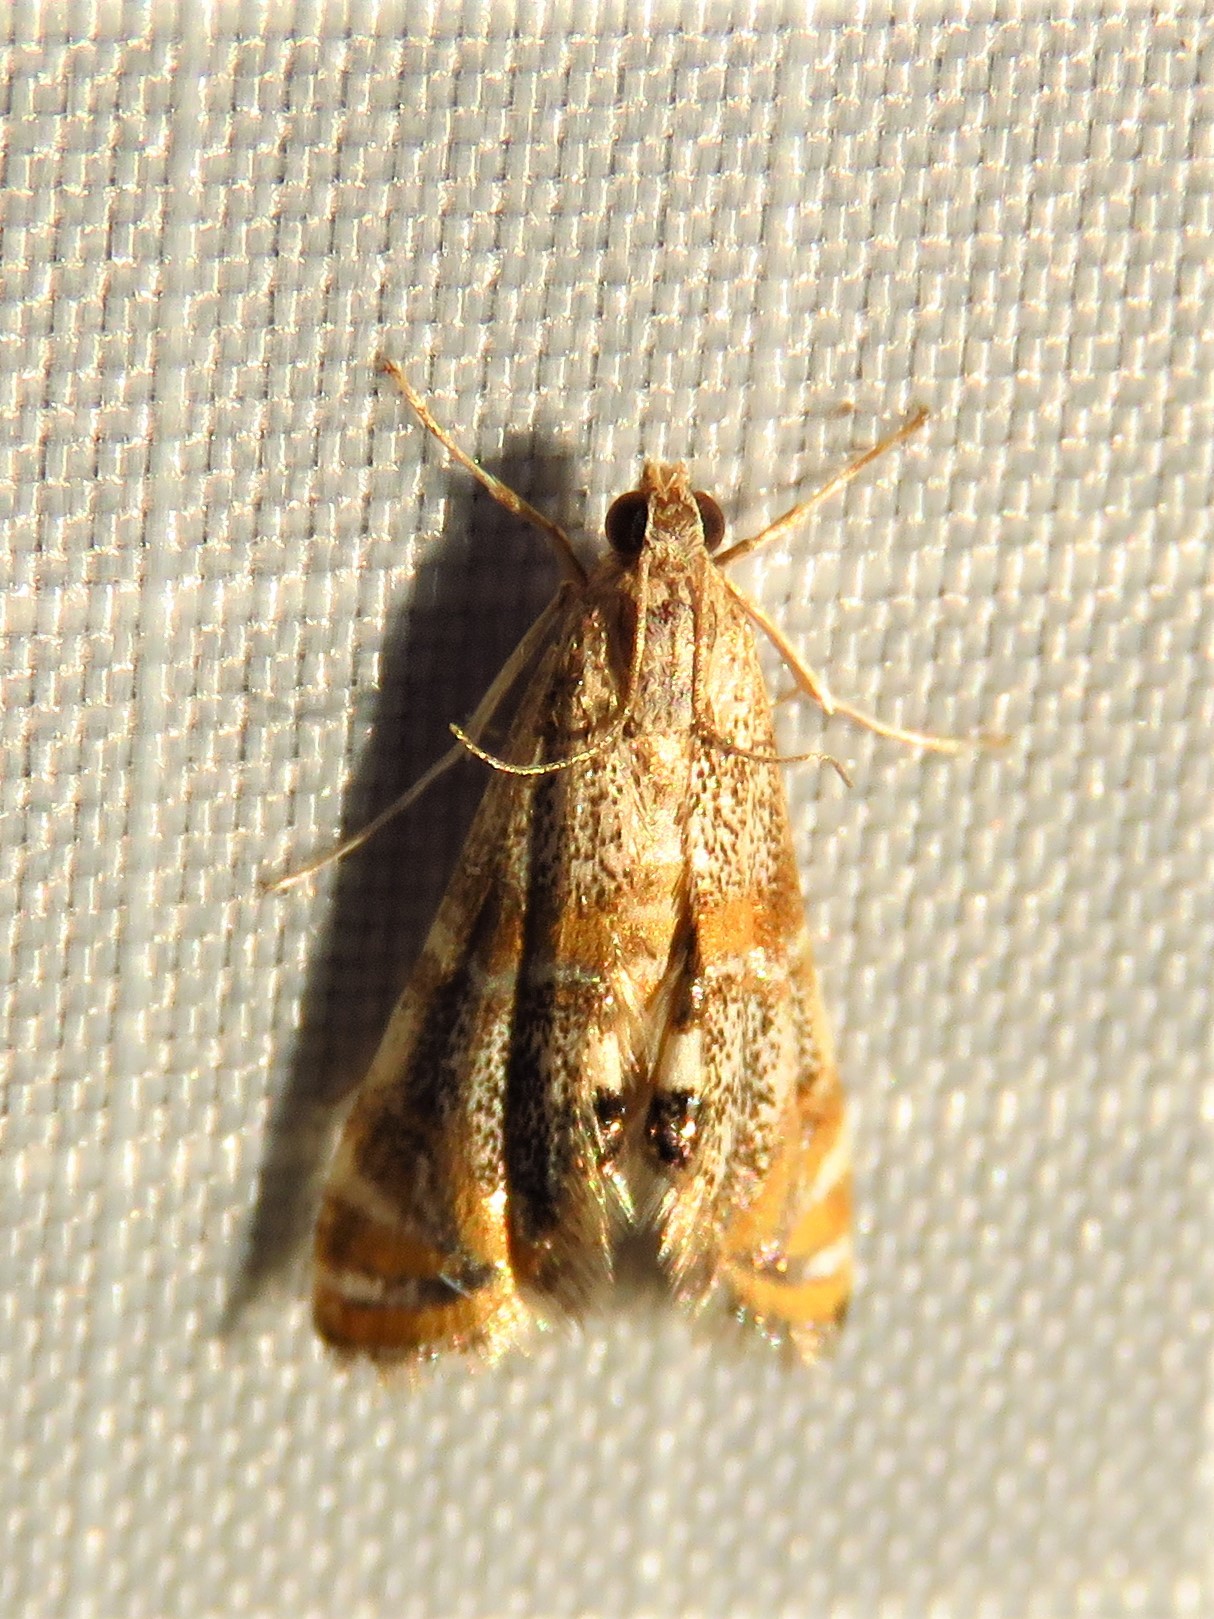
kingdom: Animalia
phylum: Arthropoda
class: Insecta
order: Lepidoptera
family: Crambidae
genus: Petrophila
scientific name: Petrophila bifascialis
